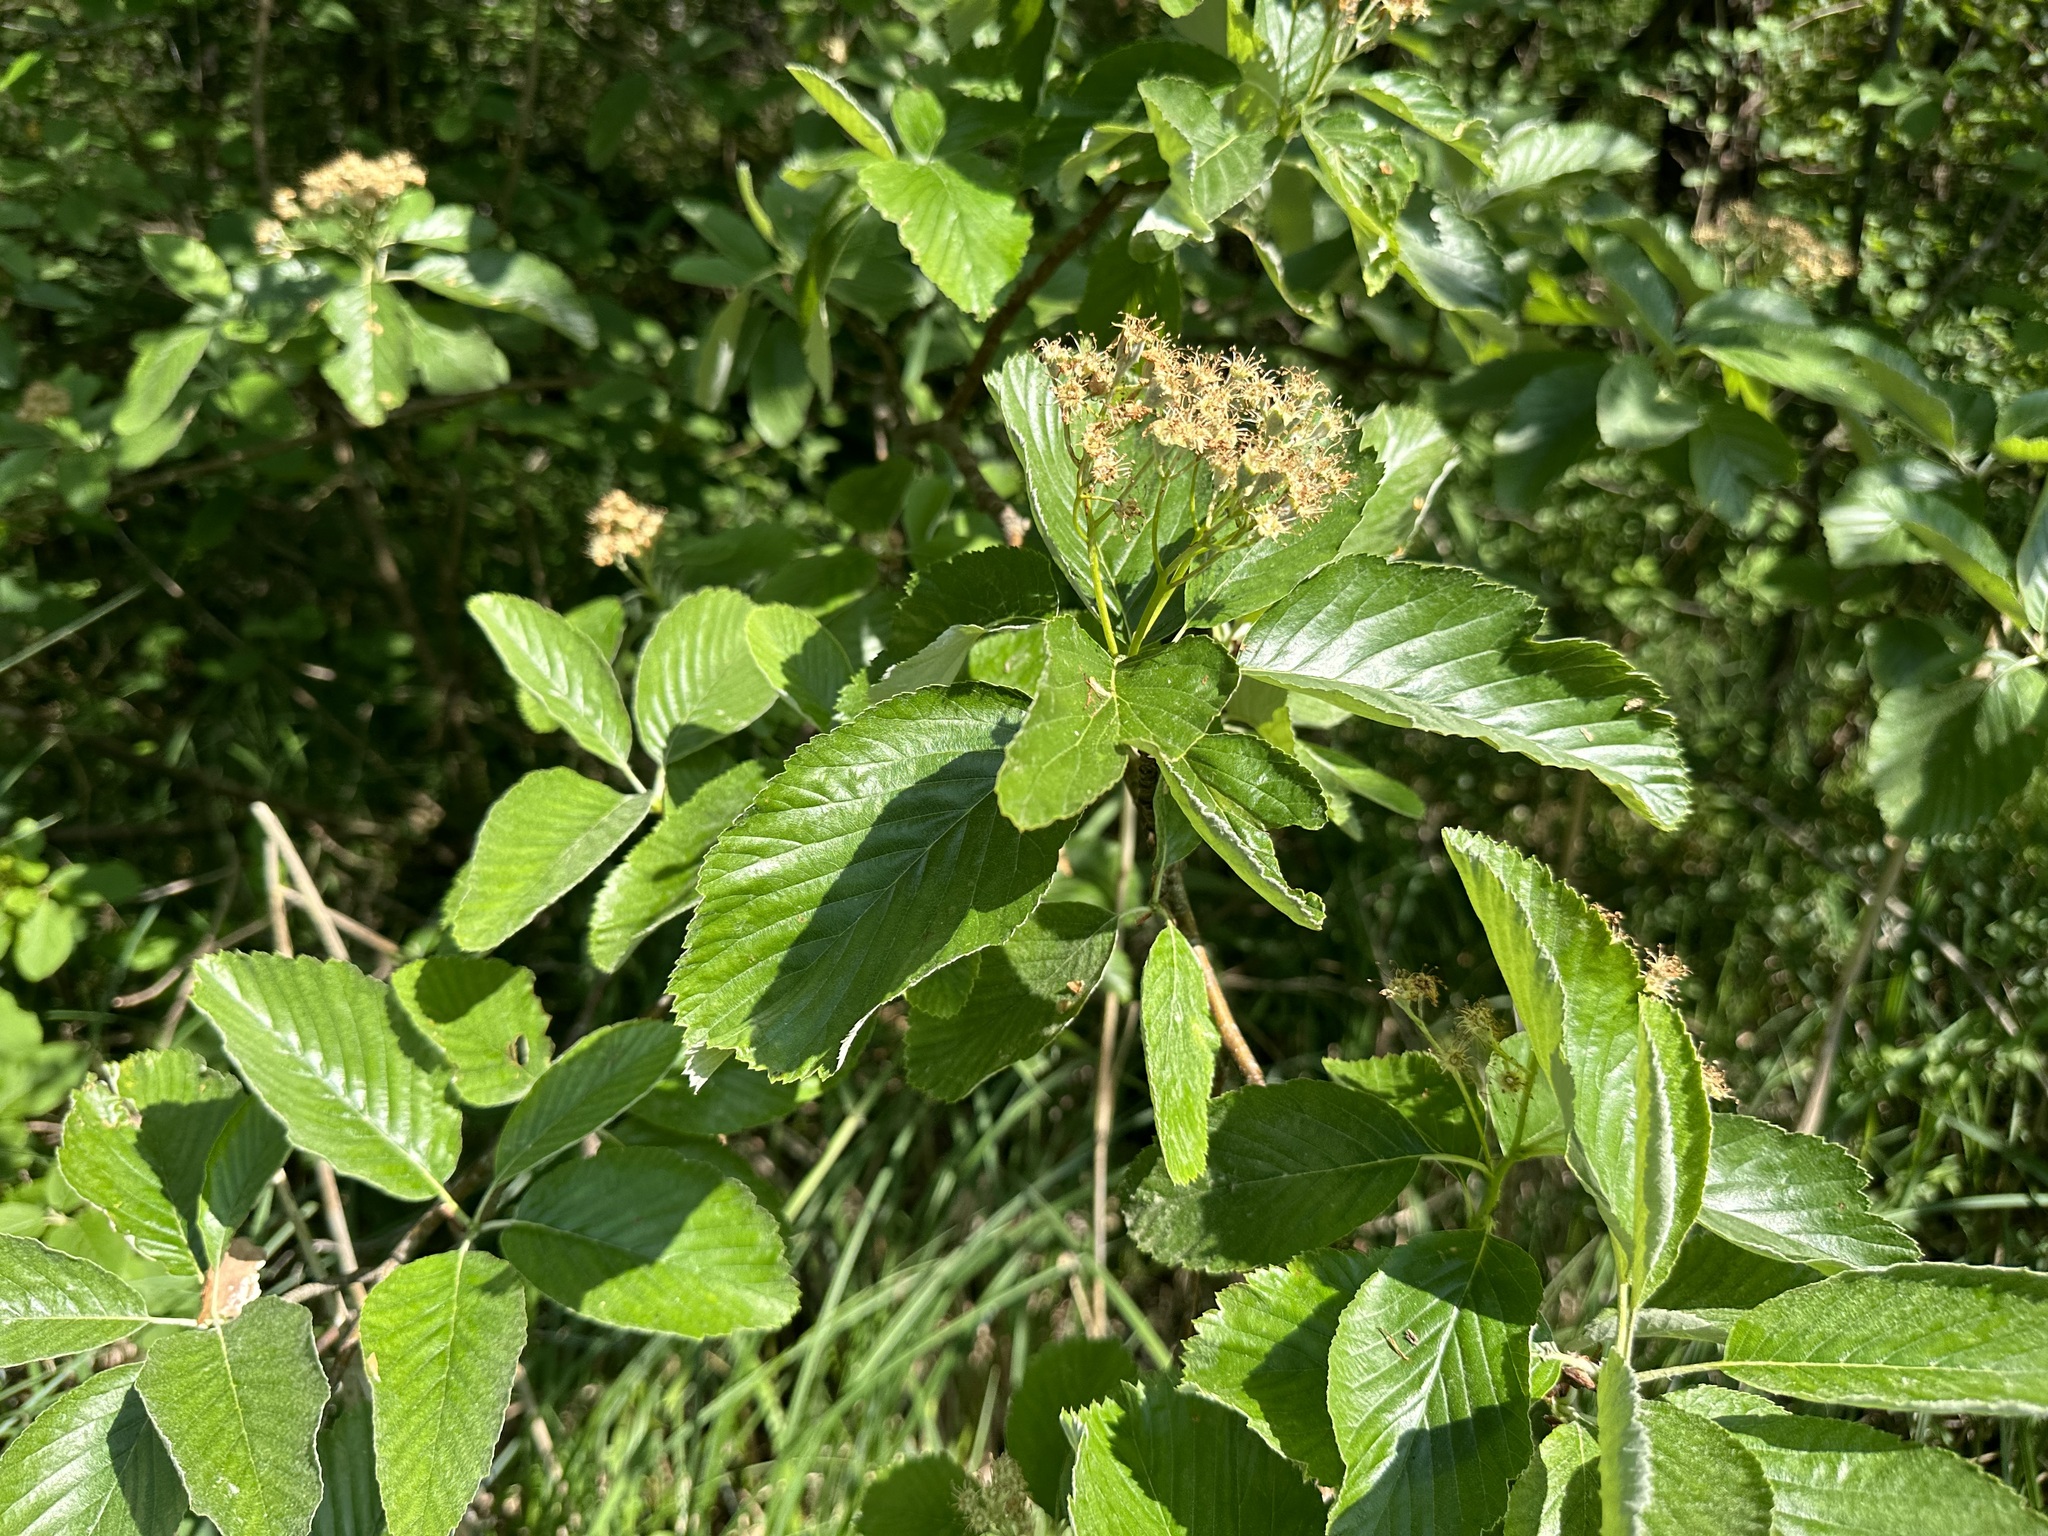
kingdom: Plantae
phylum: Tracheophyta
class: Magnoliopsida
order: Rosales
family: Rosaceae
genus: Aria
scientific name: Aria edulis
